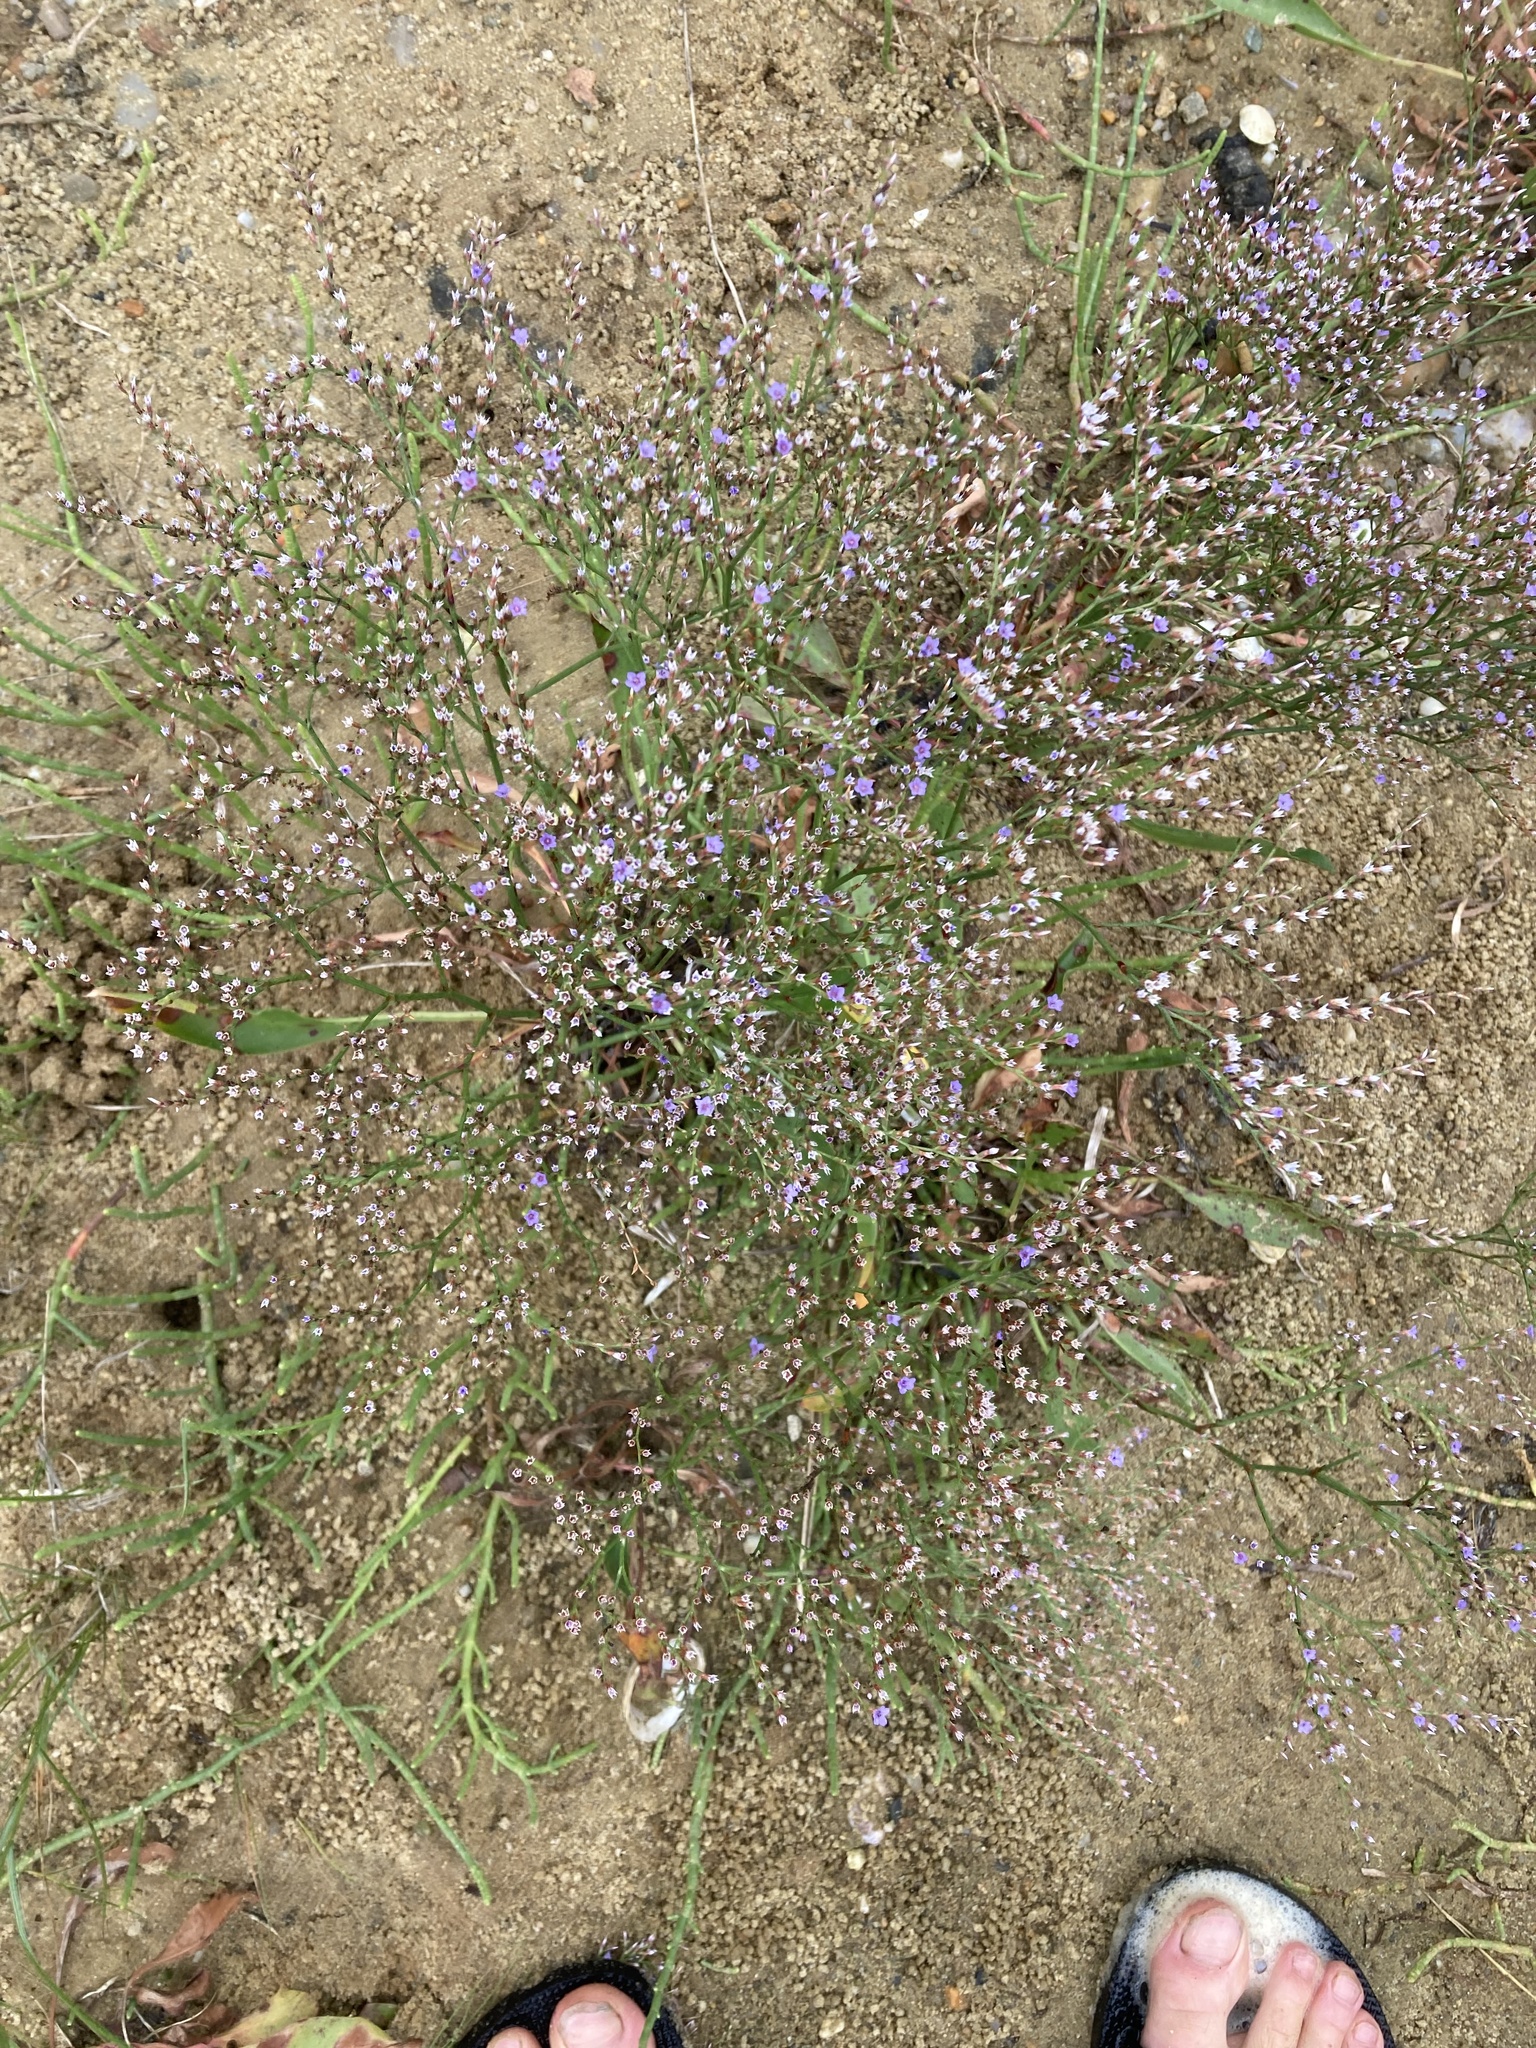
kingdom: Plantae
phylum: Tracheophyta
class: Magnoliopsida
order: Caryophyllales
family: Plumbaginaceae
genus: Limonium
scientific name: Limonium carolinianum
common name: Carolina sea lavender
